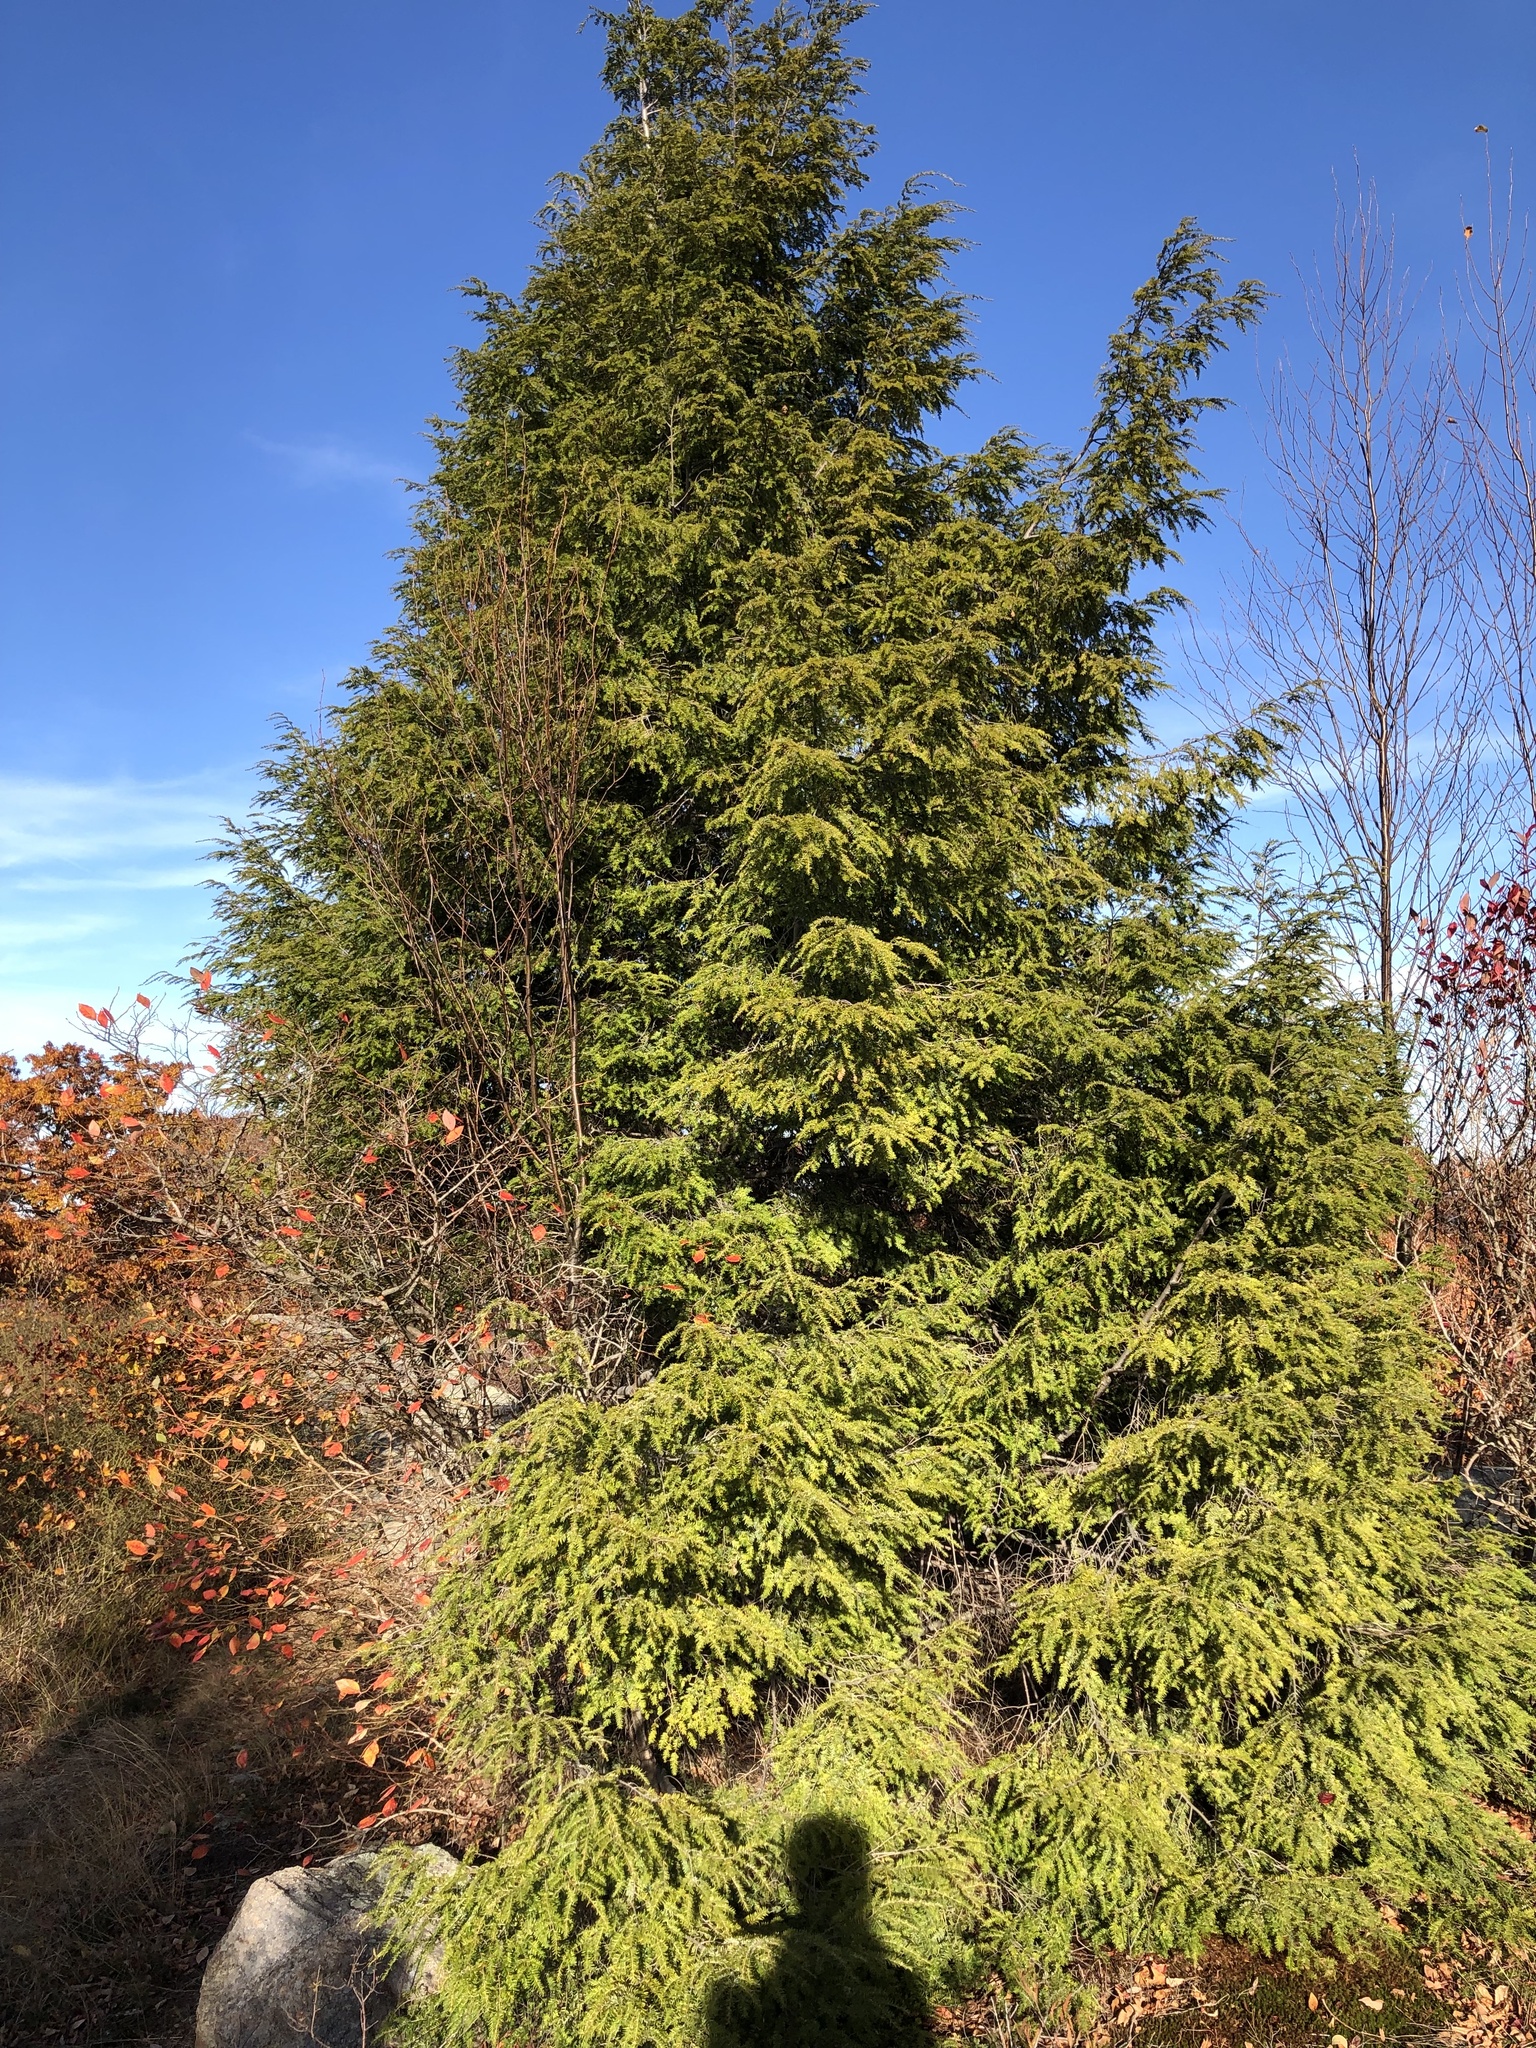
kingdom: Plantae
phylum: Tracheophyta
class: Pinopsida
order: Pinales
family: Pinaceae
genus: Tsuga
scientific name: Tsuga canadensis
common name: Eastern hemlock
